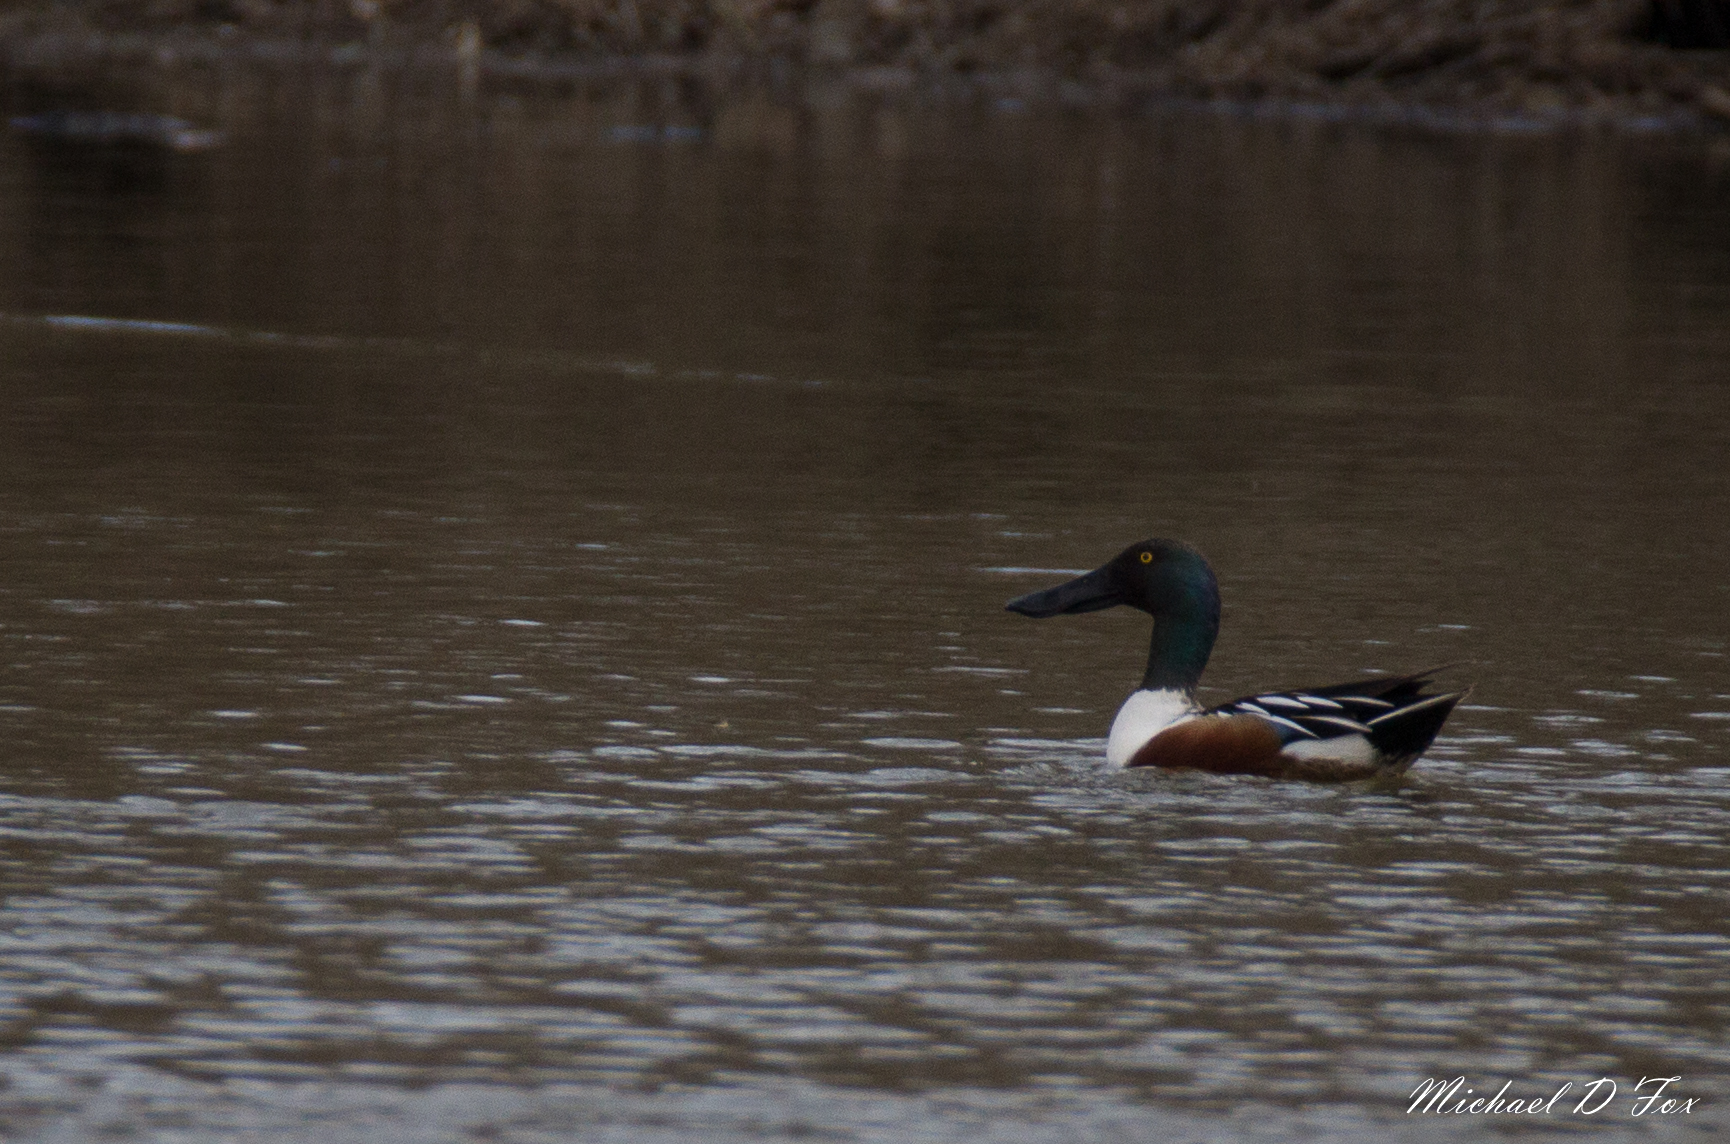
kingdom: Animalia
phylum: Chordata
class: Aves
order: Anseriformes
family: Anatidae
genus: Spatula
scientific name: Spatula clypeata
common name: Northern shoveler
